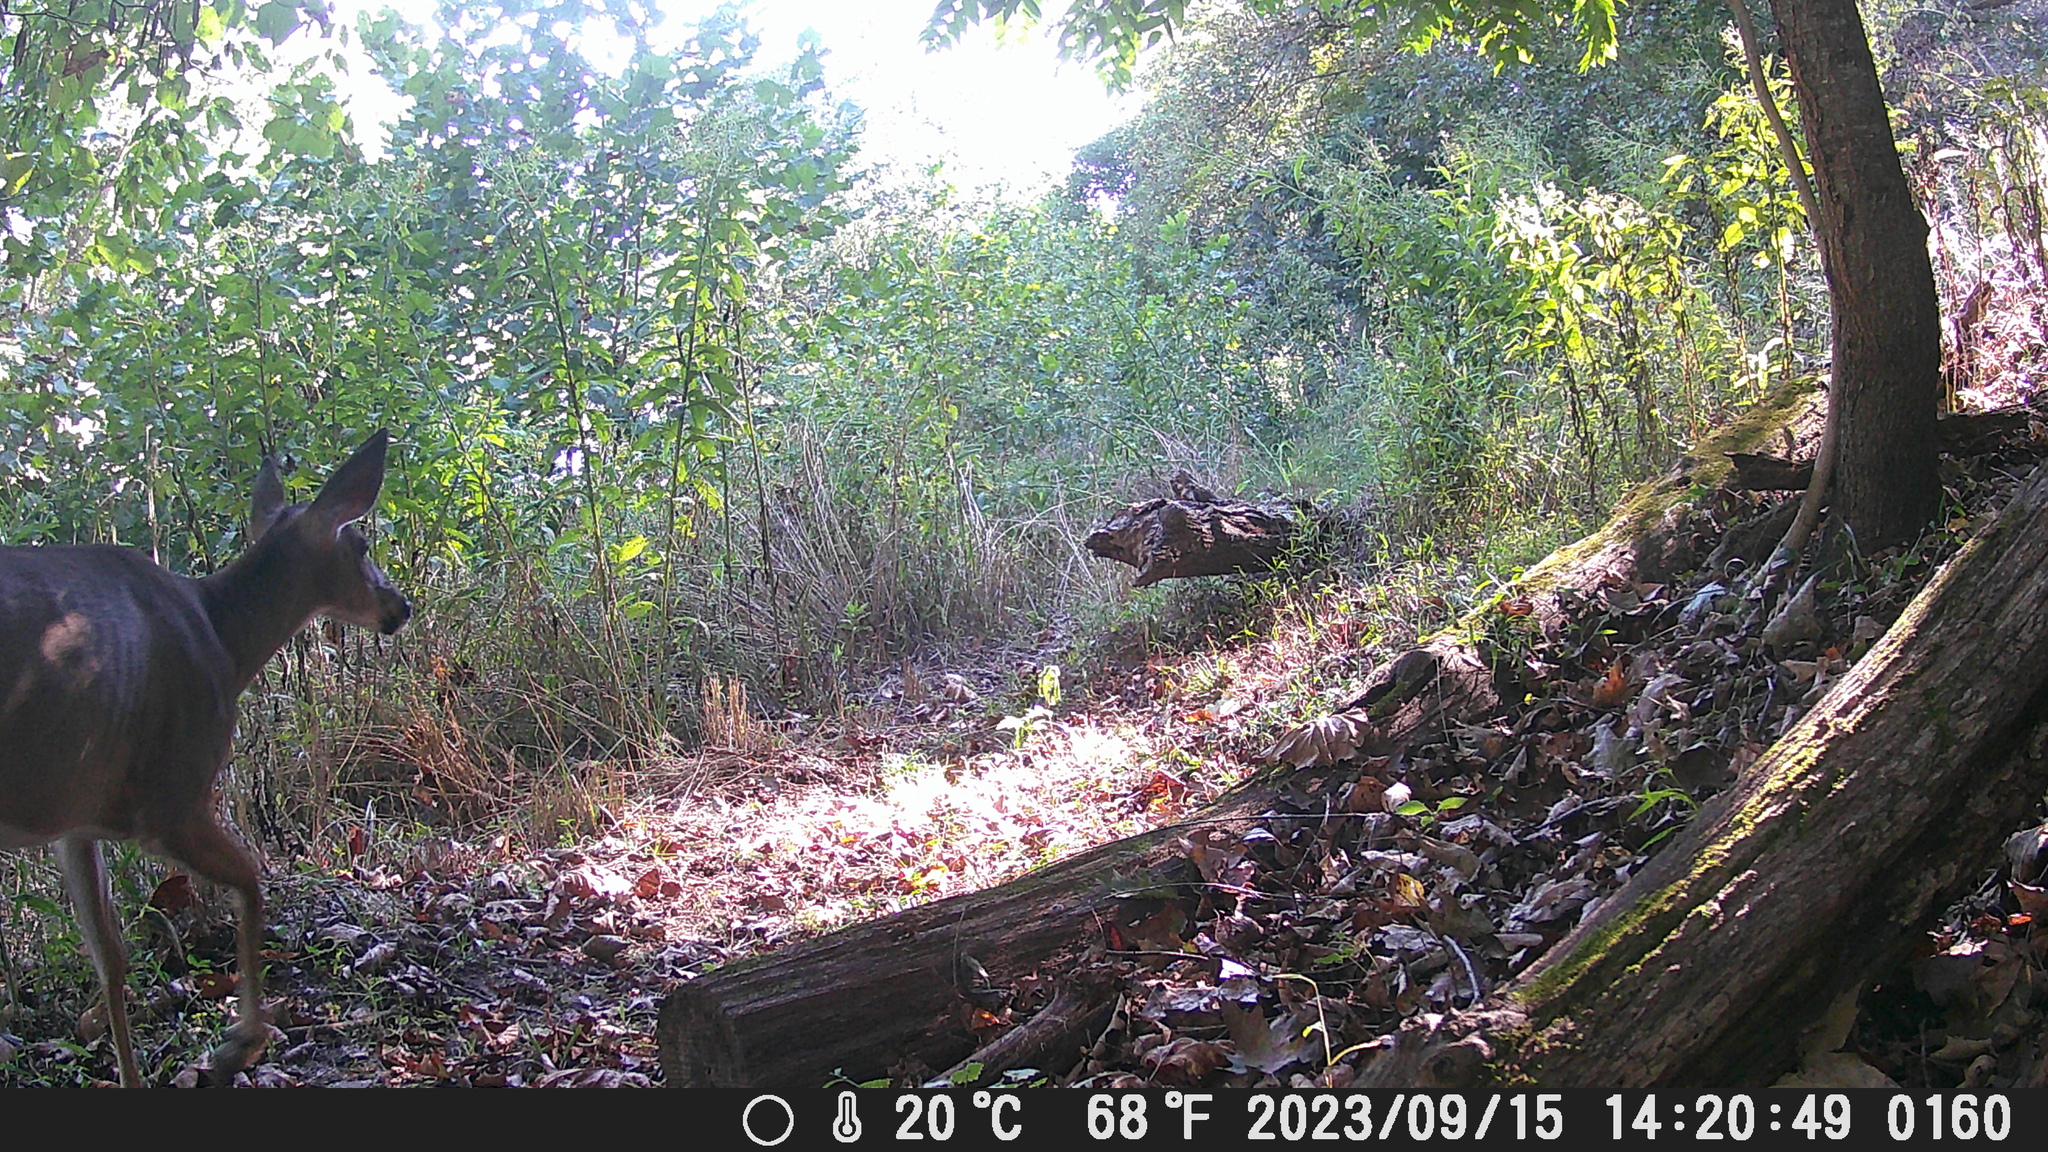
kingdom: Animalia
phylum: Chordata
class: Mammalia
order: Artiodactyla
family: Cervidae
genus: Odocoileus
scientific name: Odocoileus virginianus
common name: White-tailed deer
